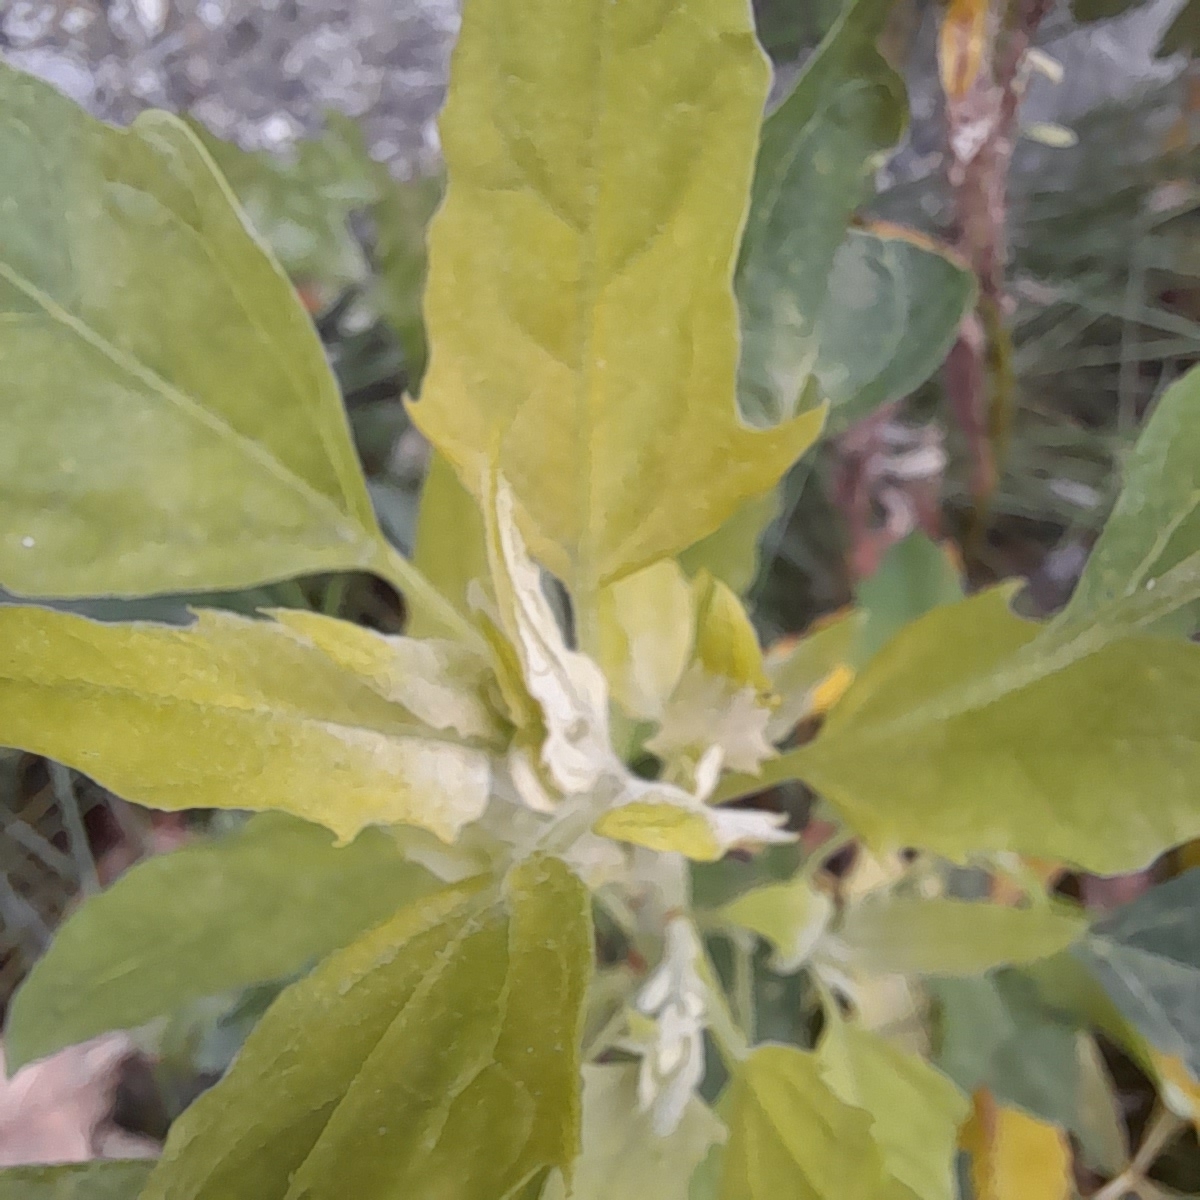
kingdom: Plantae
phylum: Tracheophyta
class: Magnoliopsida
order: Caryophyllales
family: Amaranthaceae
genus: Chenopodium
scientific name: Chenopodium album
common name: Fat-hen
